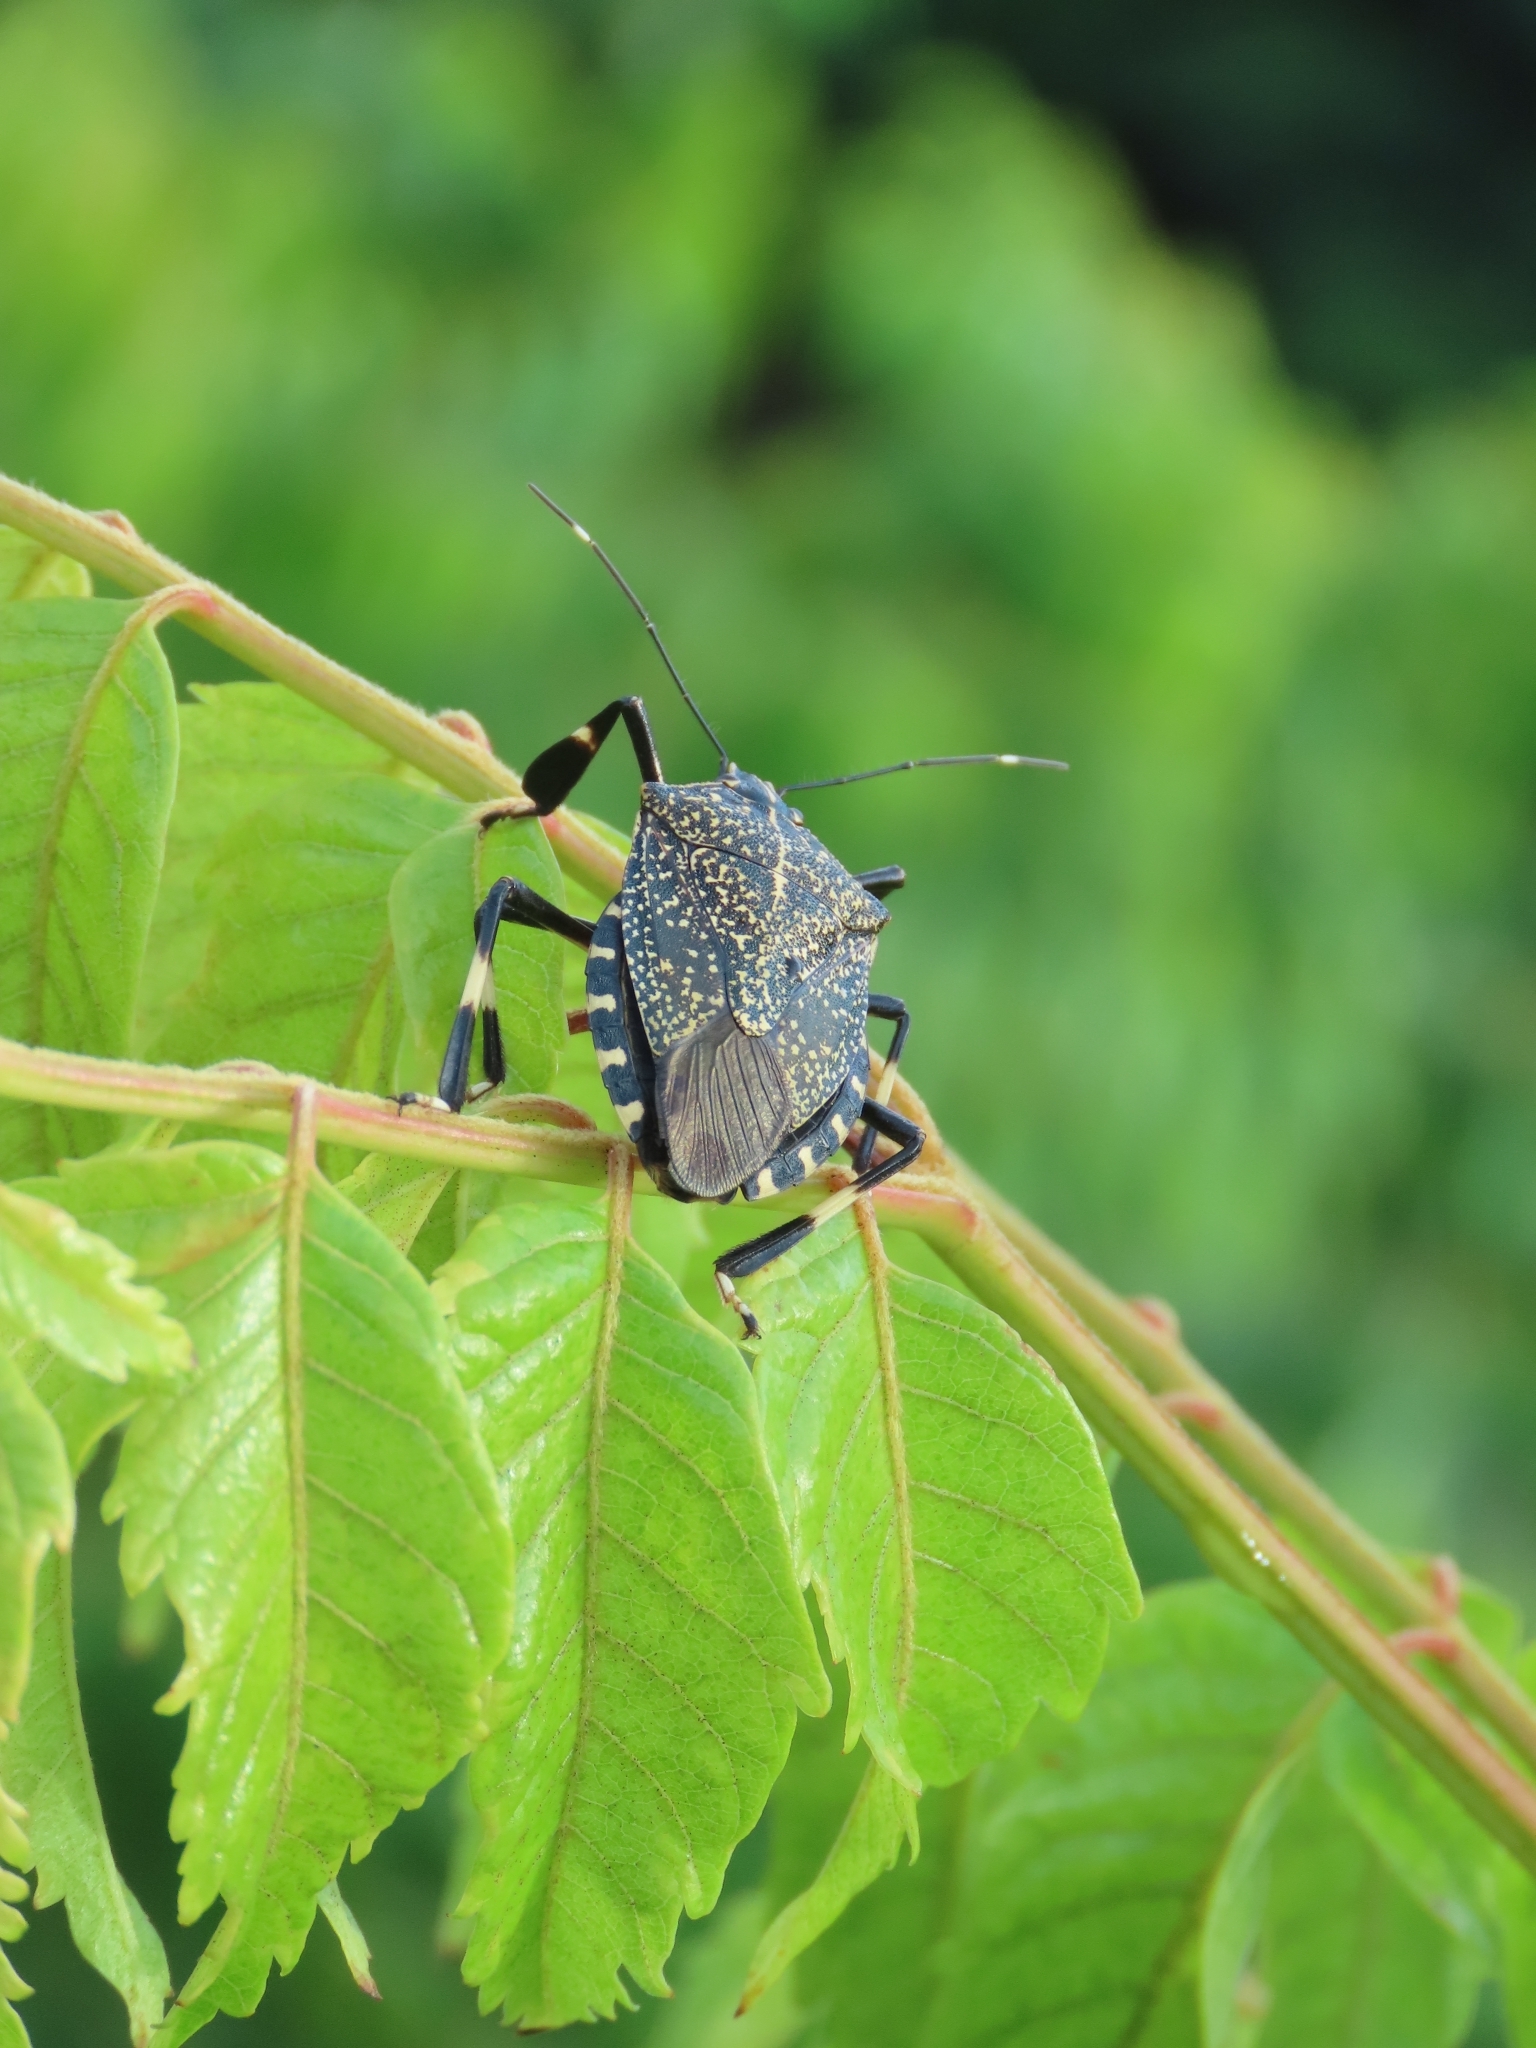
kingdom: Animalia
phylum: Arthropoda
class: Insecta
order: Hemiptera
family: Pentatomidae
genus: Erthesina
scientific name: Erthesina fullo
